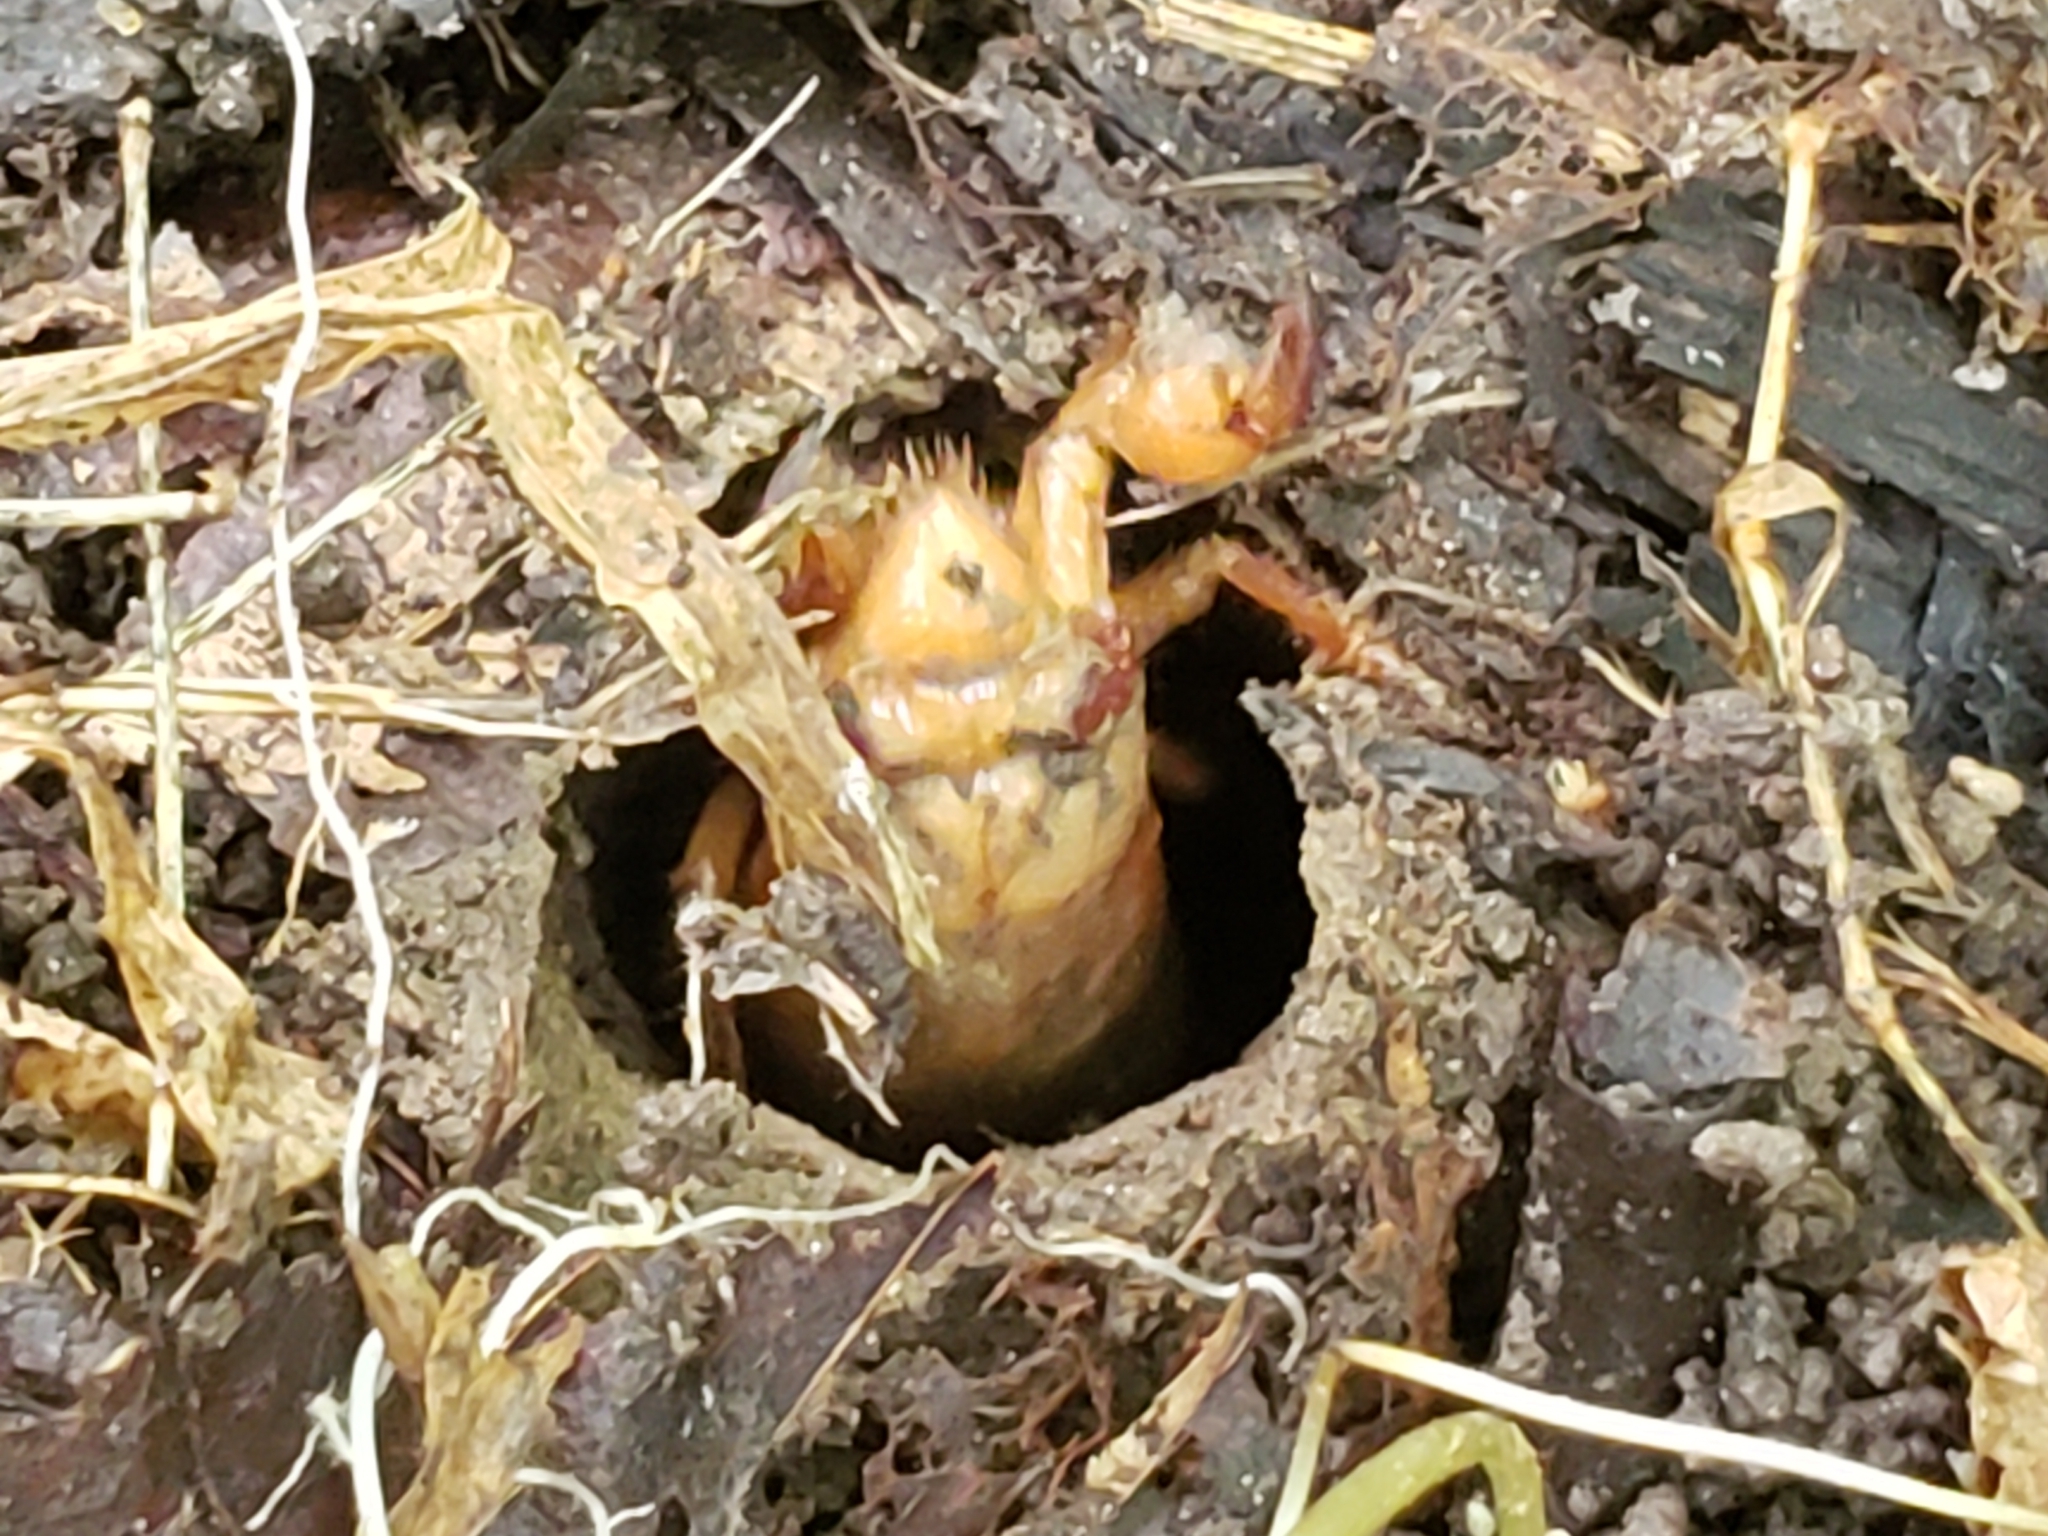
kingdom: Animalia
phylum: Arthropoda
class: Insecta
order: Hemiptera
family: Cicadidae
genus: Magicicada
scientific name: Magicicada
